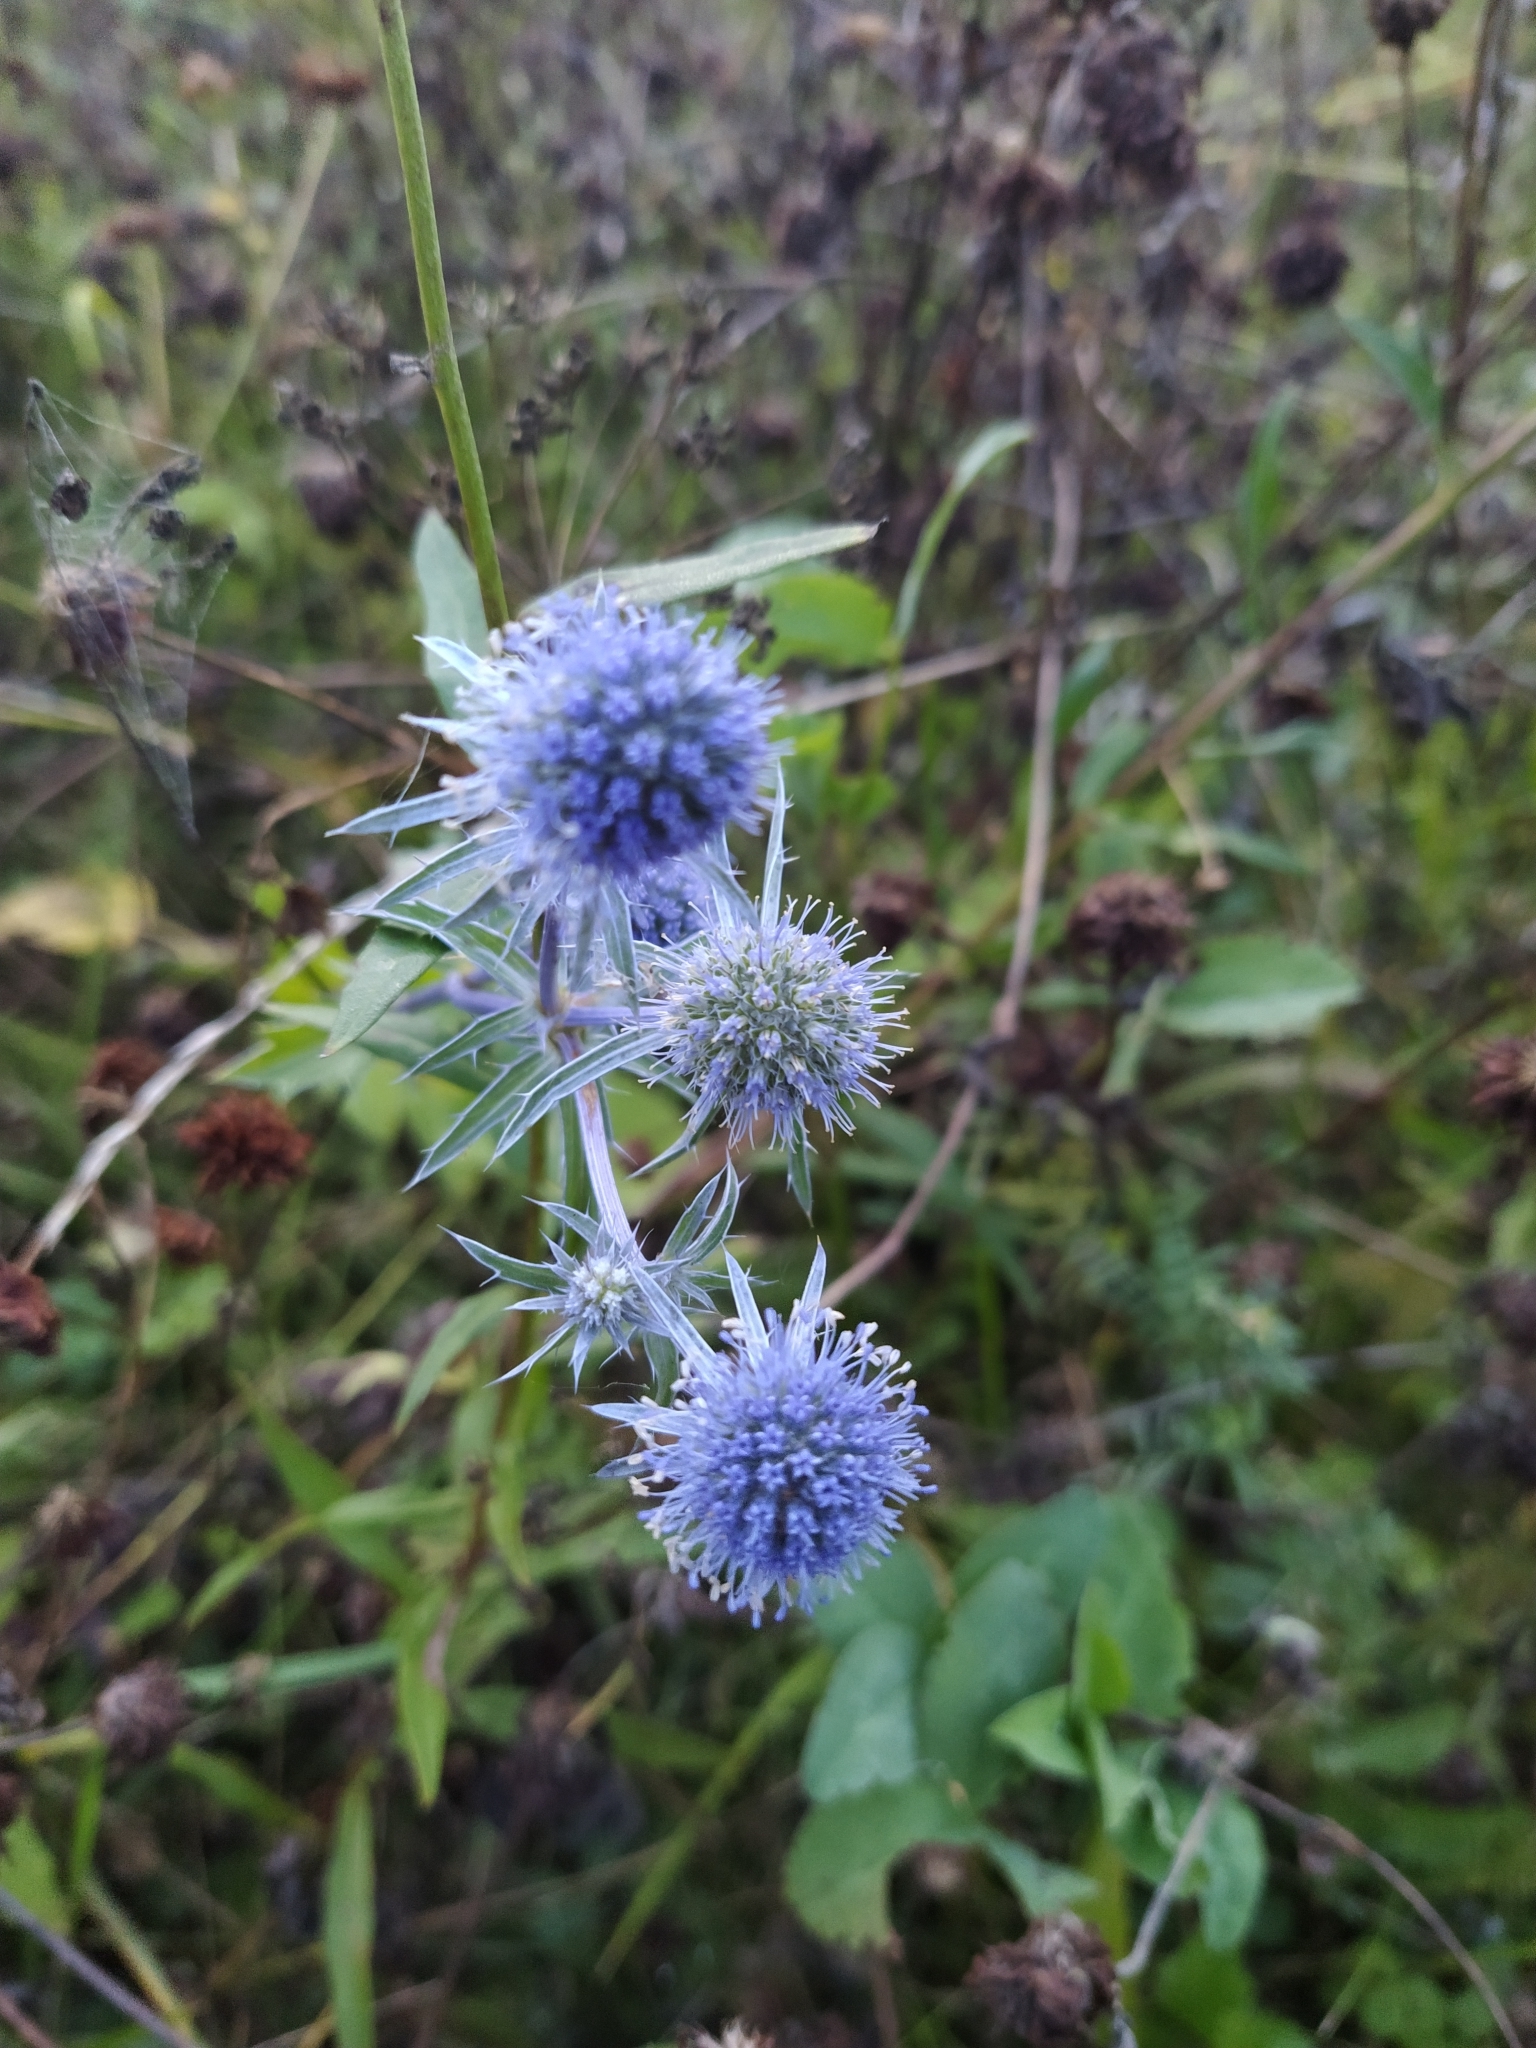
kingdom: Plantae
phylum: Tracheophyta
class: Magnoliopsida
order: Apiales
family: Apiaceae
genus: Eryngium
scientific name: Eryngium planum
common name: Blue eryngo
